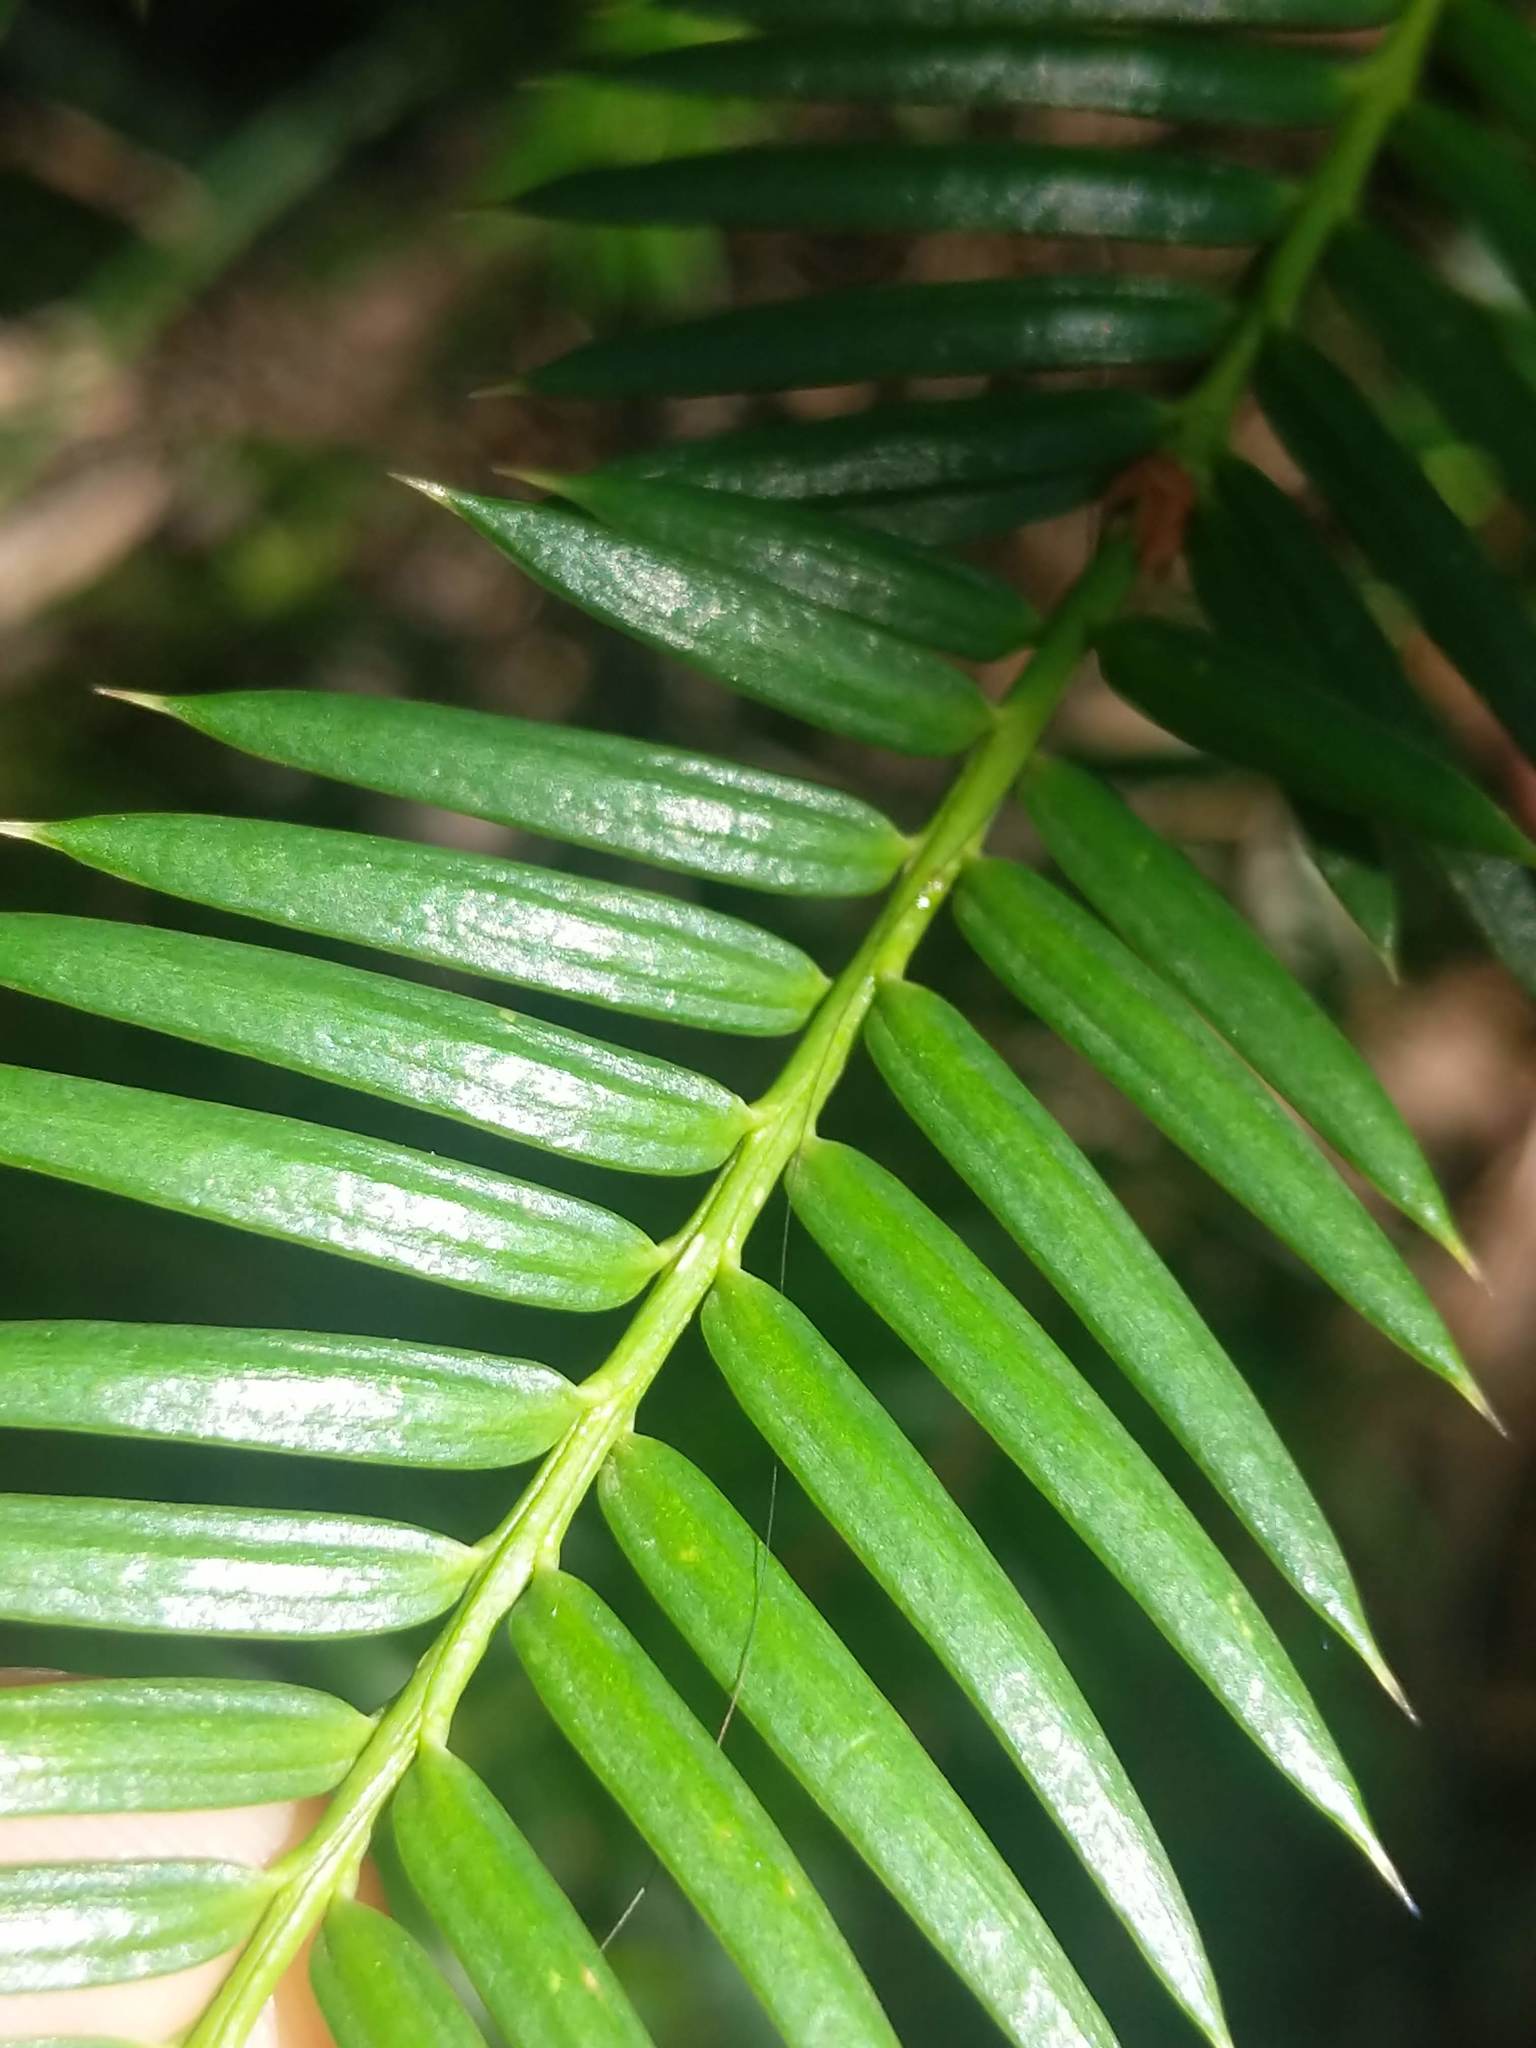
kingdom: Plantae
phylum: Tracheophyta
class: Pinopsida
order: Pinales
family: Taxaceae
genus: Torreya
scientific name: Torreya californica
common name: California torreya
